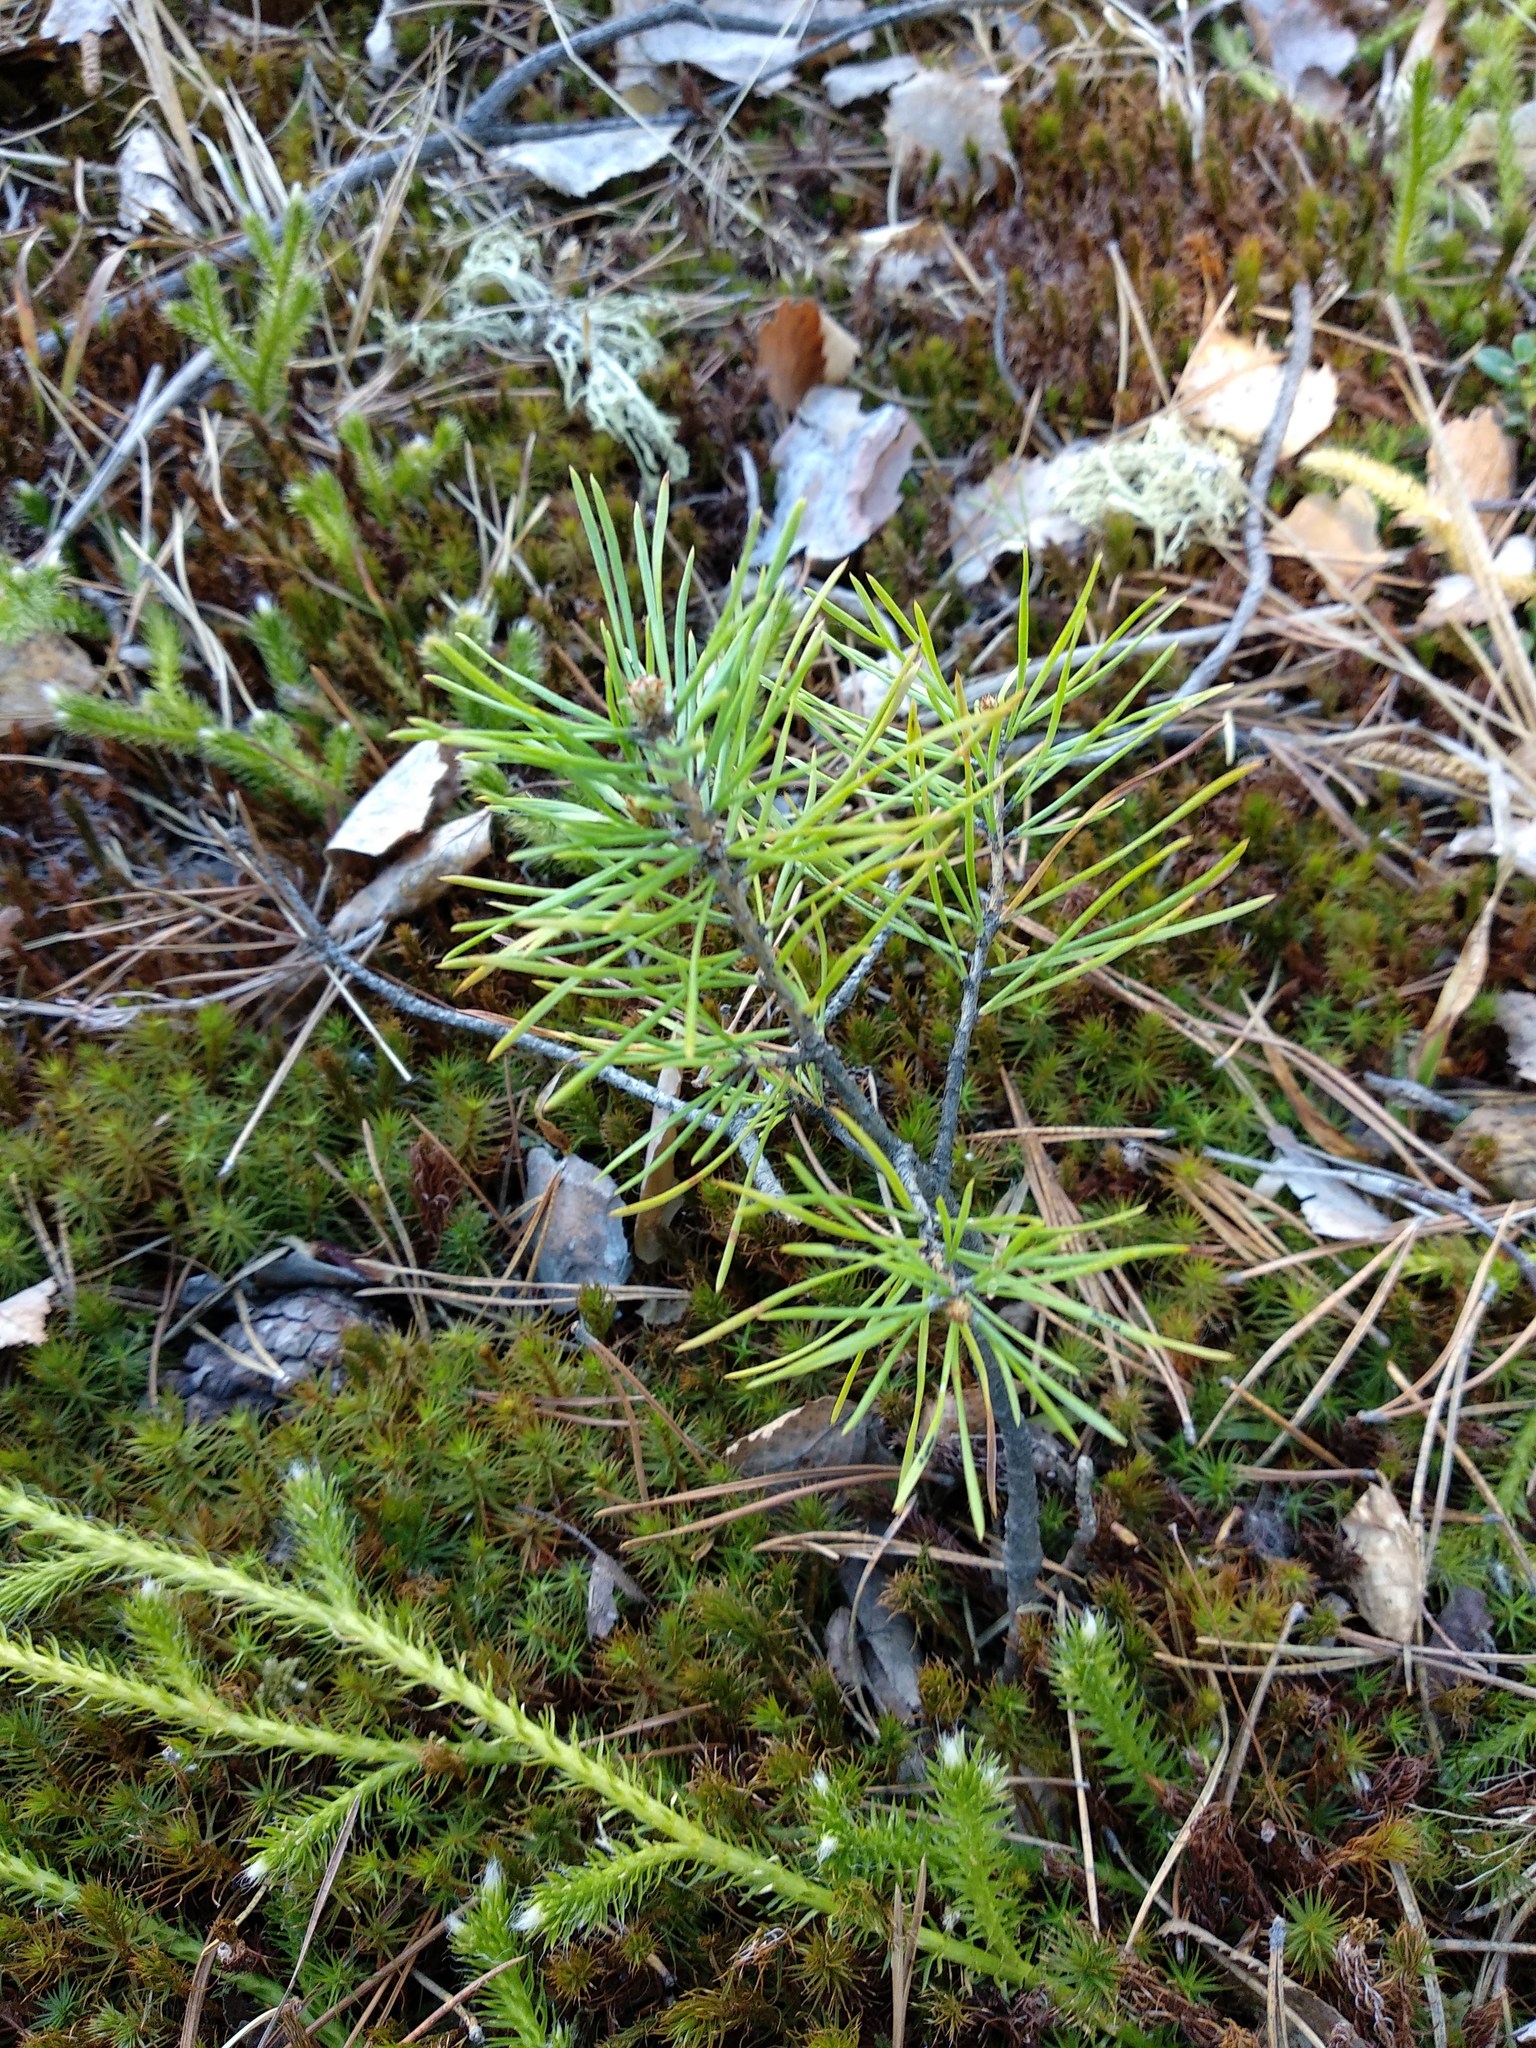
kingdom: Plantae
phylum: Tracheophyta
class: Pinopsida
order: Pinales
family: Pinaceae
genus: Pinus
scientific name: Pinus sylvestris
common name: Scots pine
